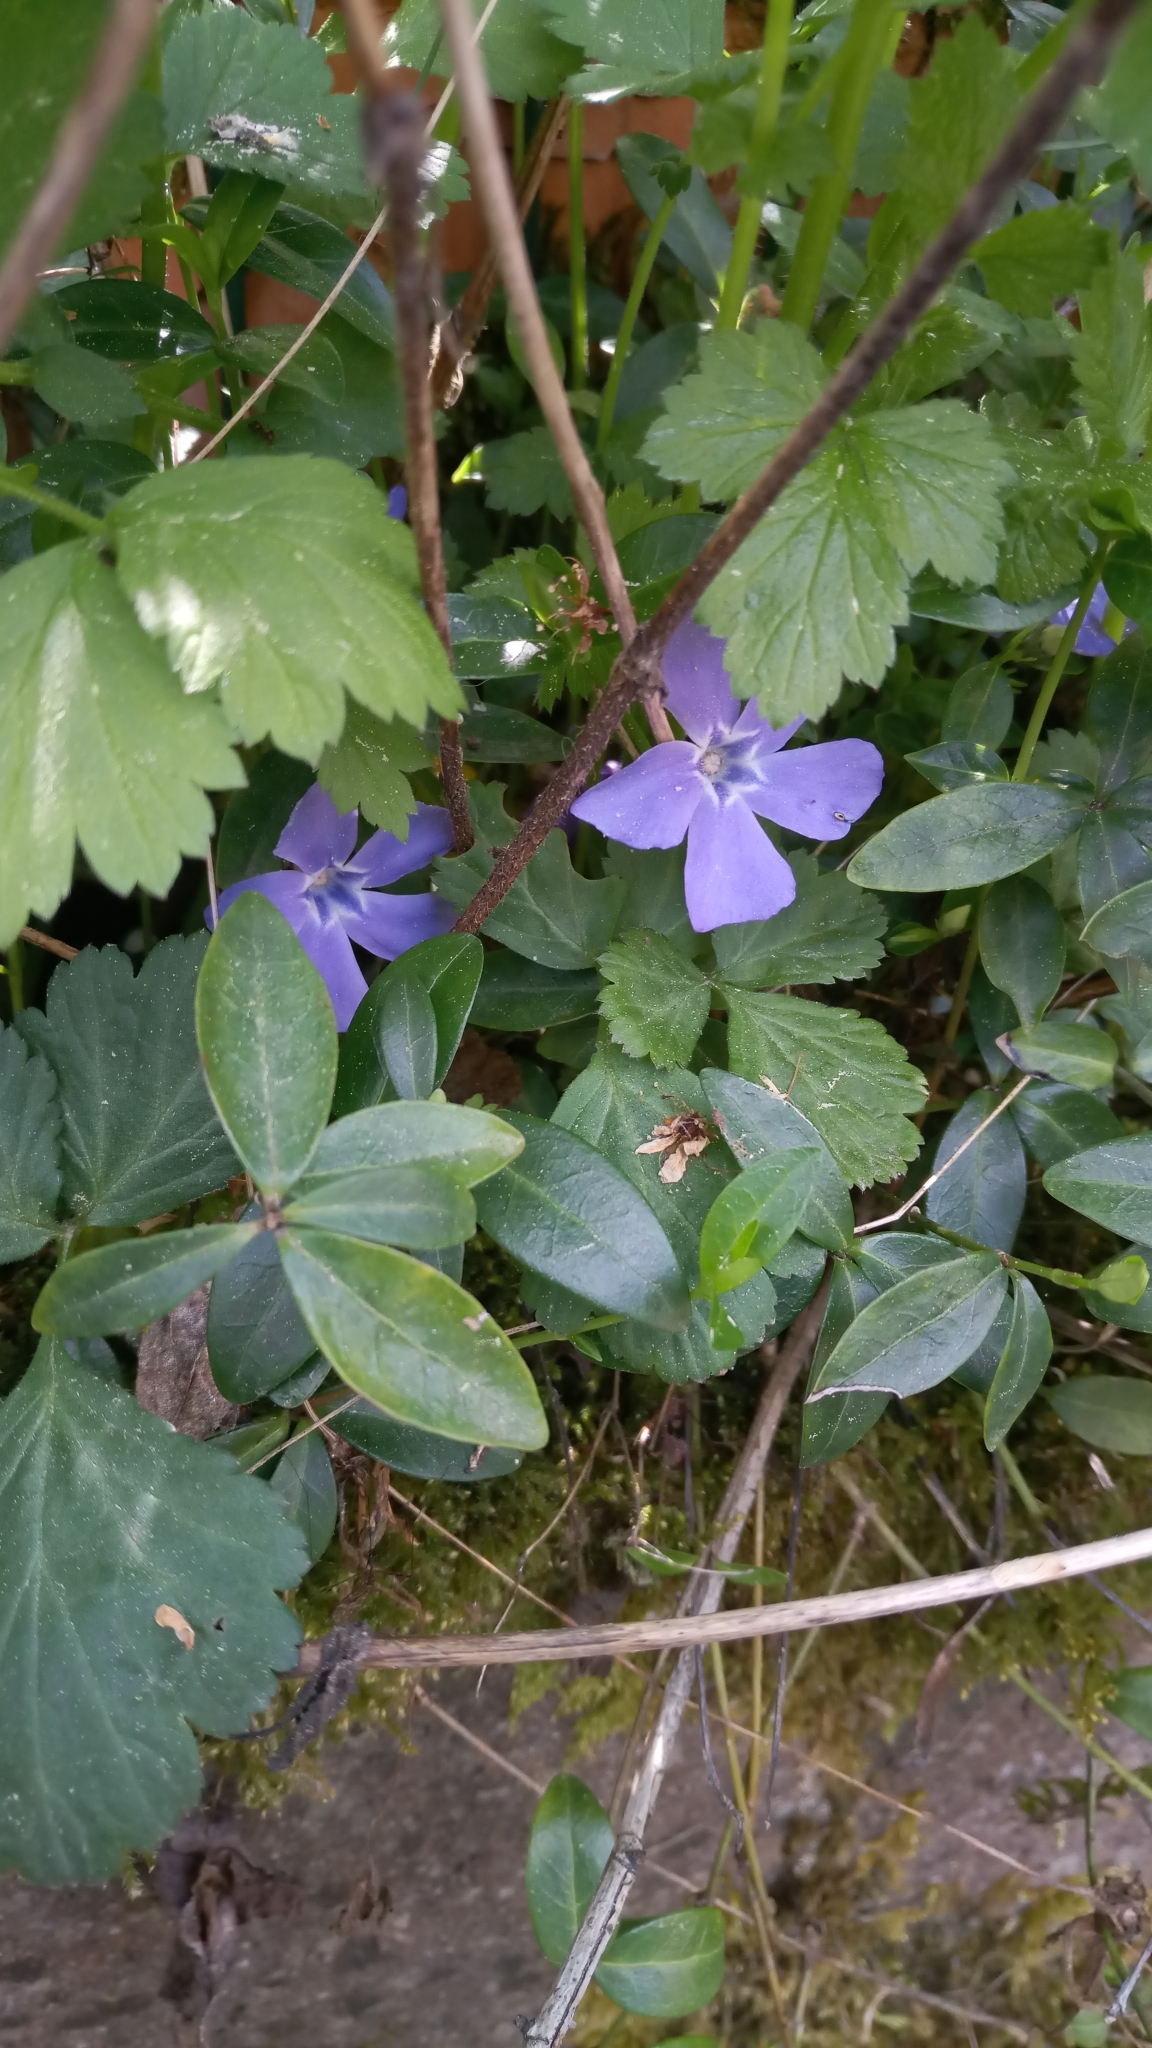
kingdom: Plantae
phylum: Tracheophyta
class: Magnoliopsida
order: Gentianales
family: Apocynaceae
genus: Vinca
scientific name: Vinca minor
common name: Lesser periwinkle
